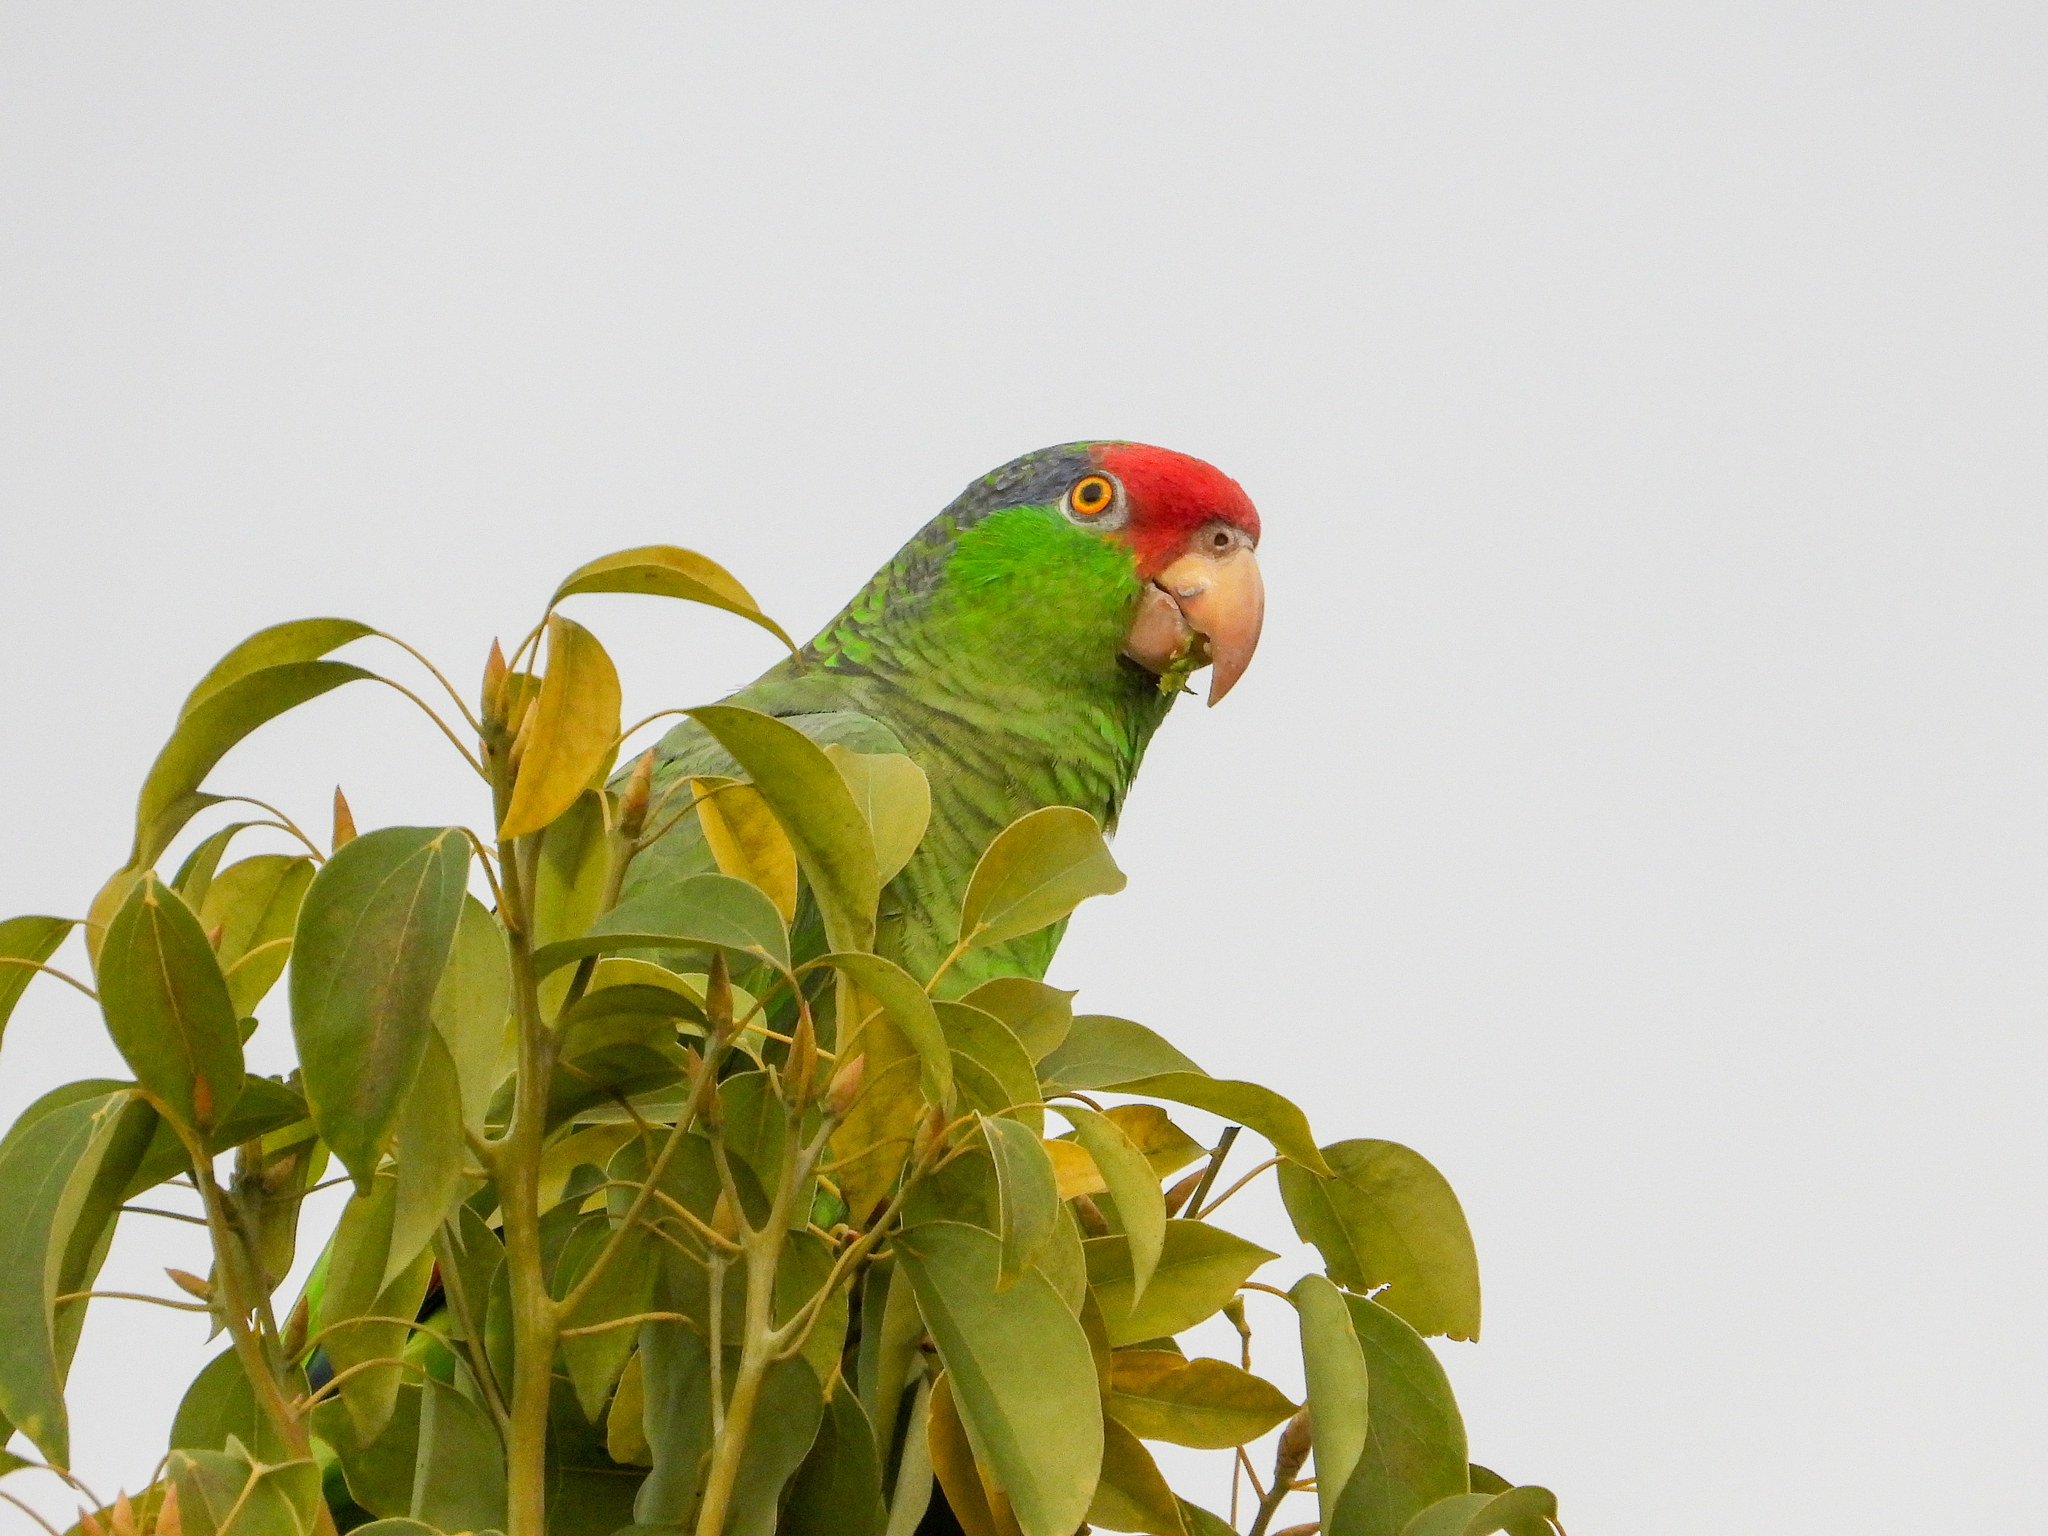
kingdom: Animalia
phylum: Chordata
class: Aves
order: Psittaciformes
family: Psittacidae
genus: Amazona
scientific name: Amazona viridigenalis
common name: Red-crowned amazon
